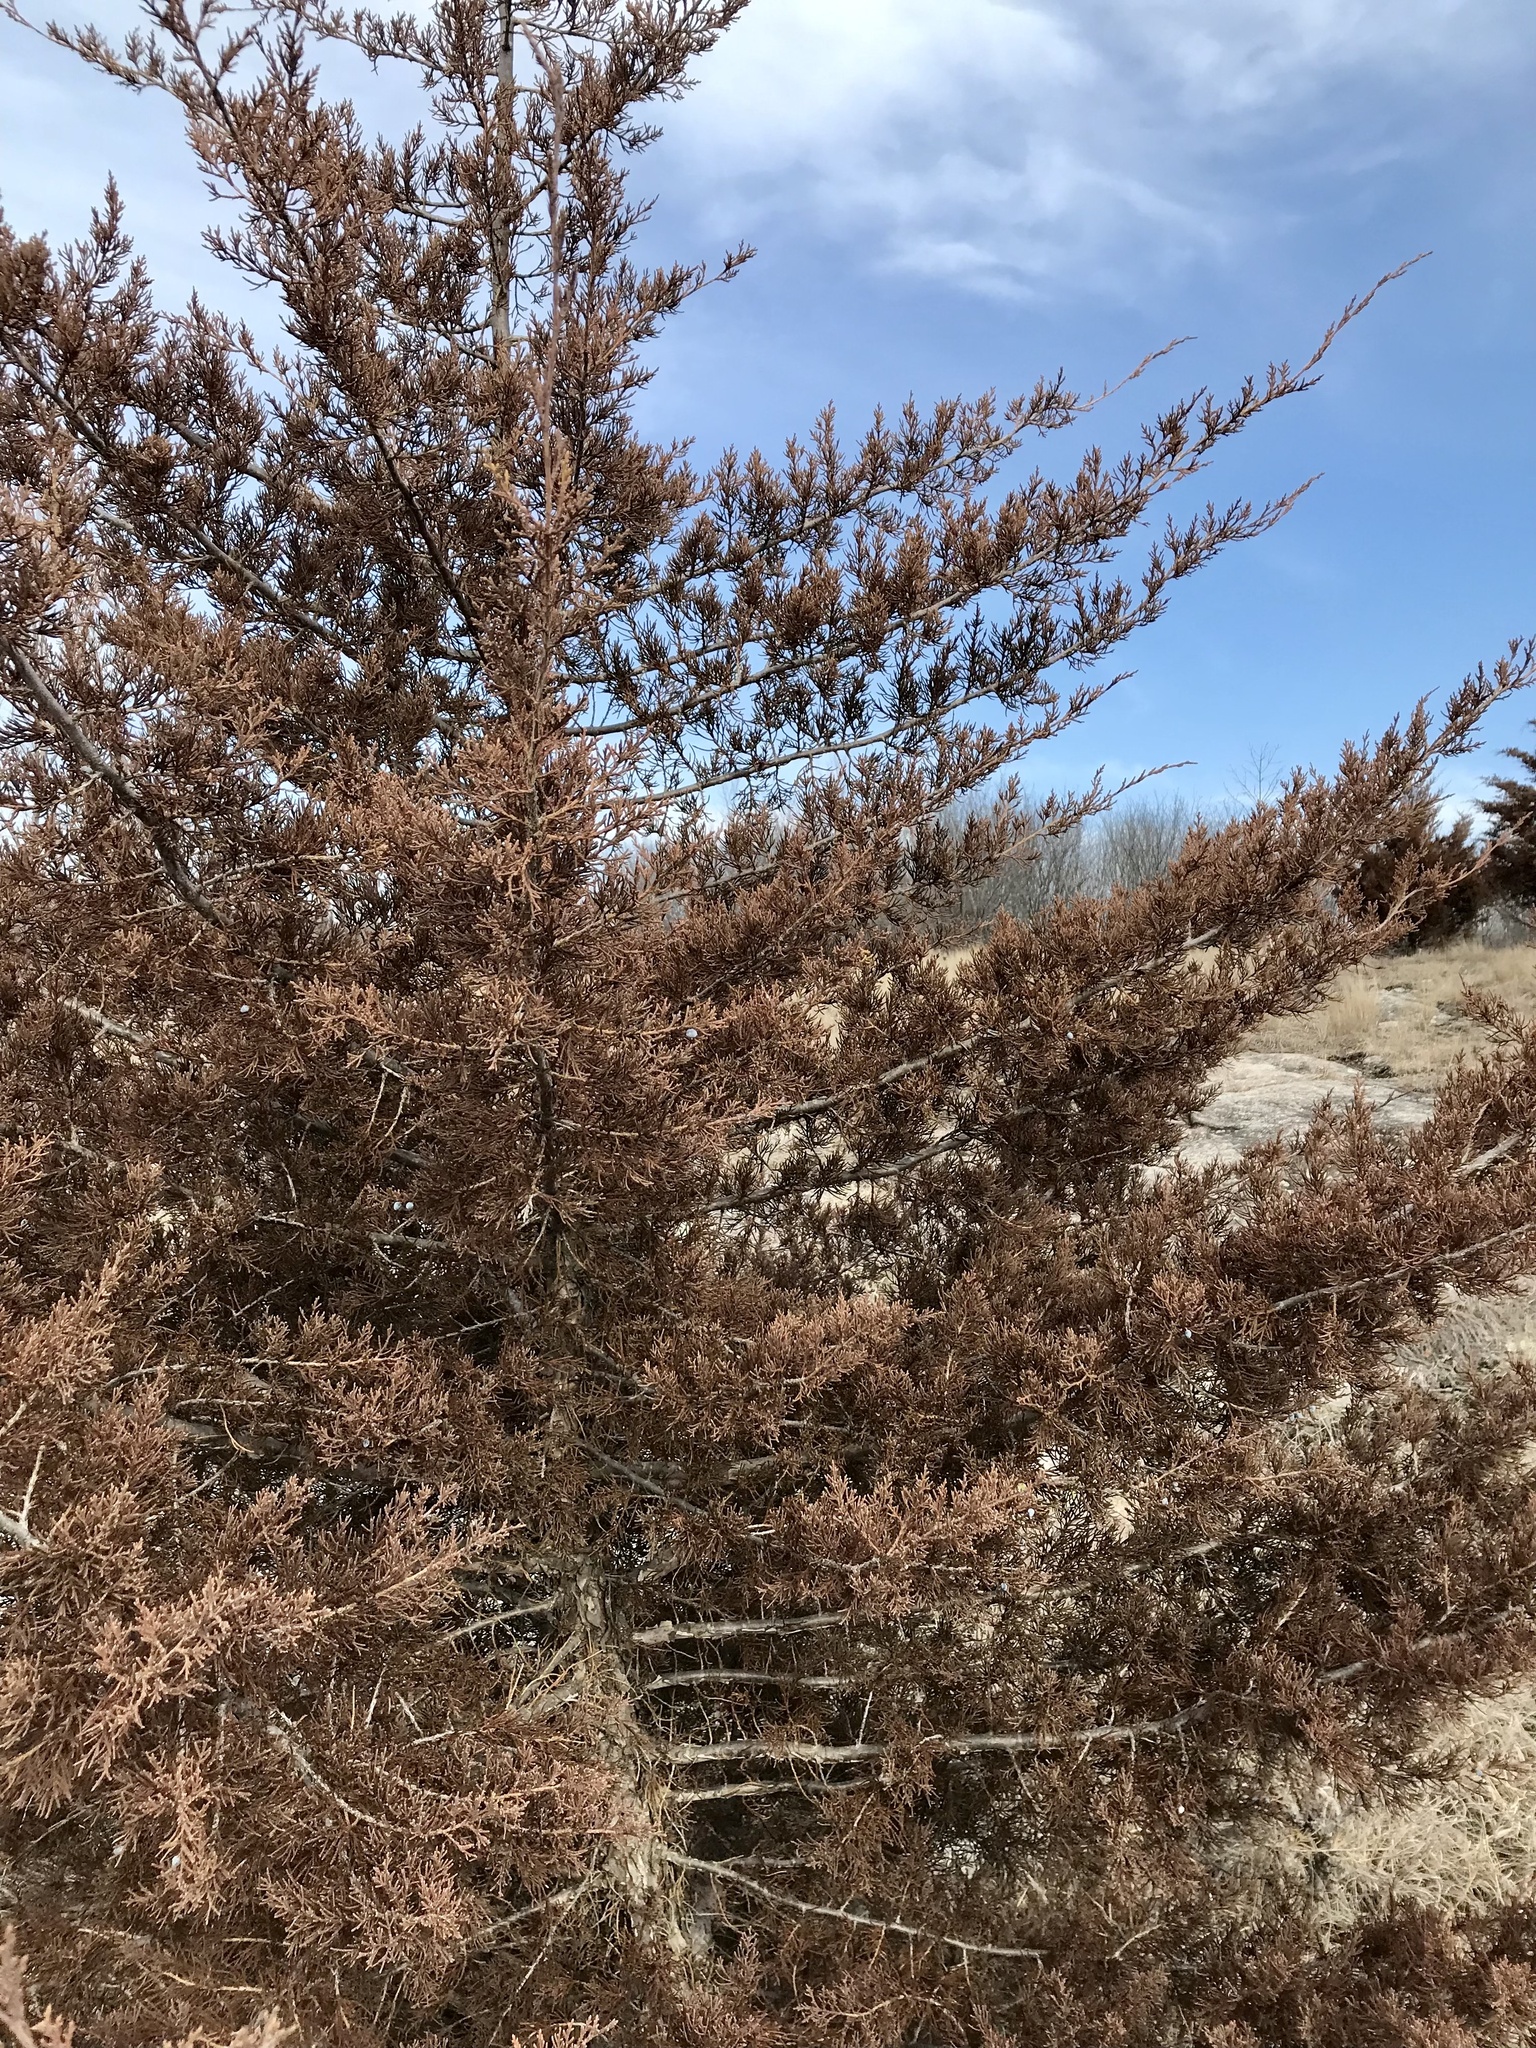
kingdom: Plantae
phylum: Tracheophyta
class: Pinopsida
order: Pinales
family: Cupressaceae
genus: Juniperus
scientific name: Juniperus virginiana
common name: Red juniper
